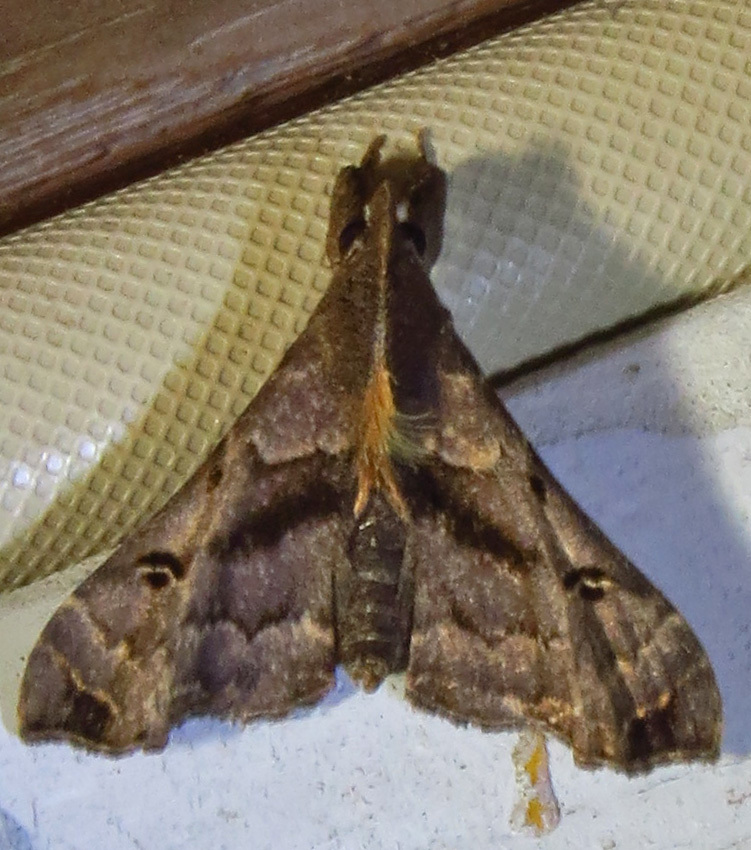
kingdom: Animalia
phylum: Arthropoda
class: Insecta
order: Lepidoptera
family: Erebidae
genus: Palthis
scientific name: Palthis asopialis
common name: Faint-spotted palthis moth
